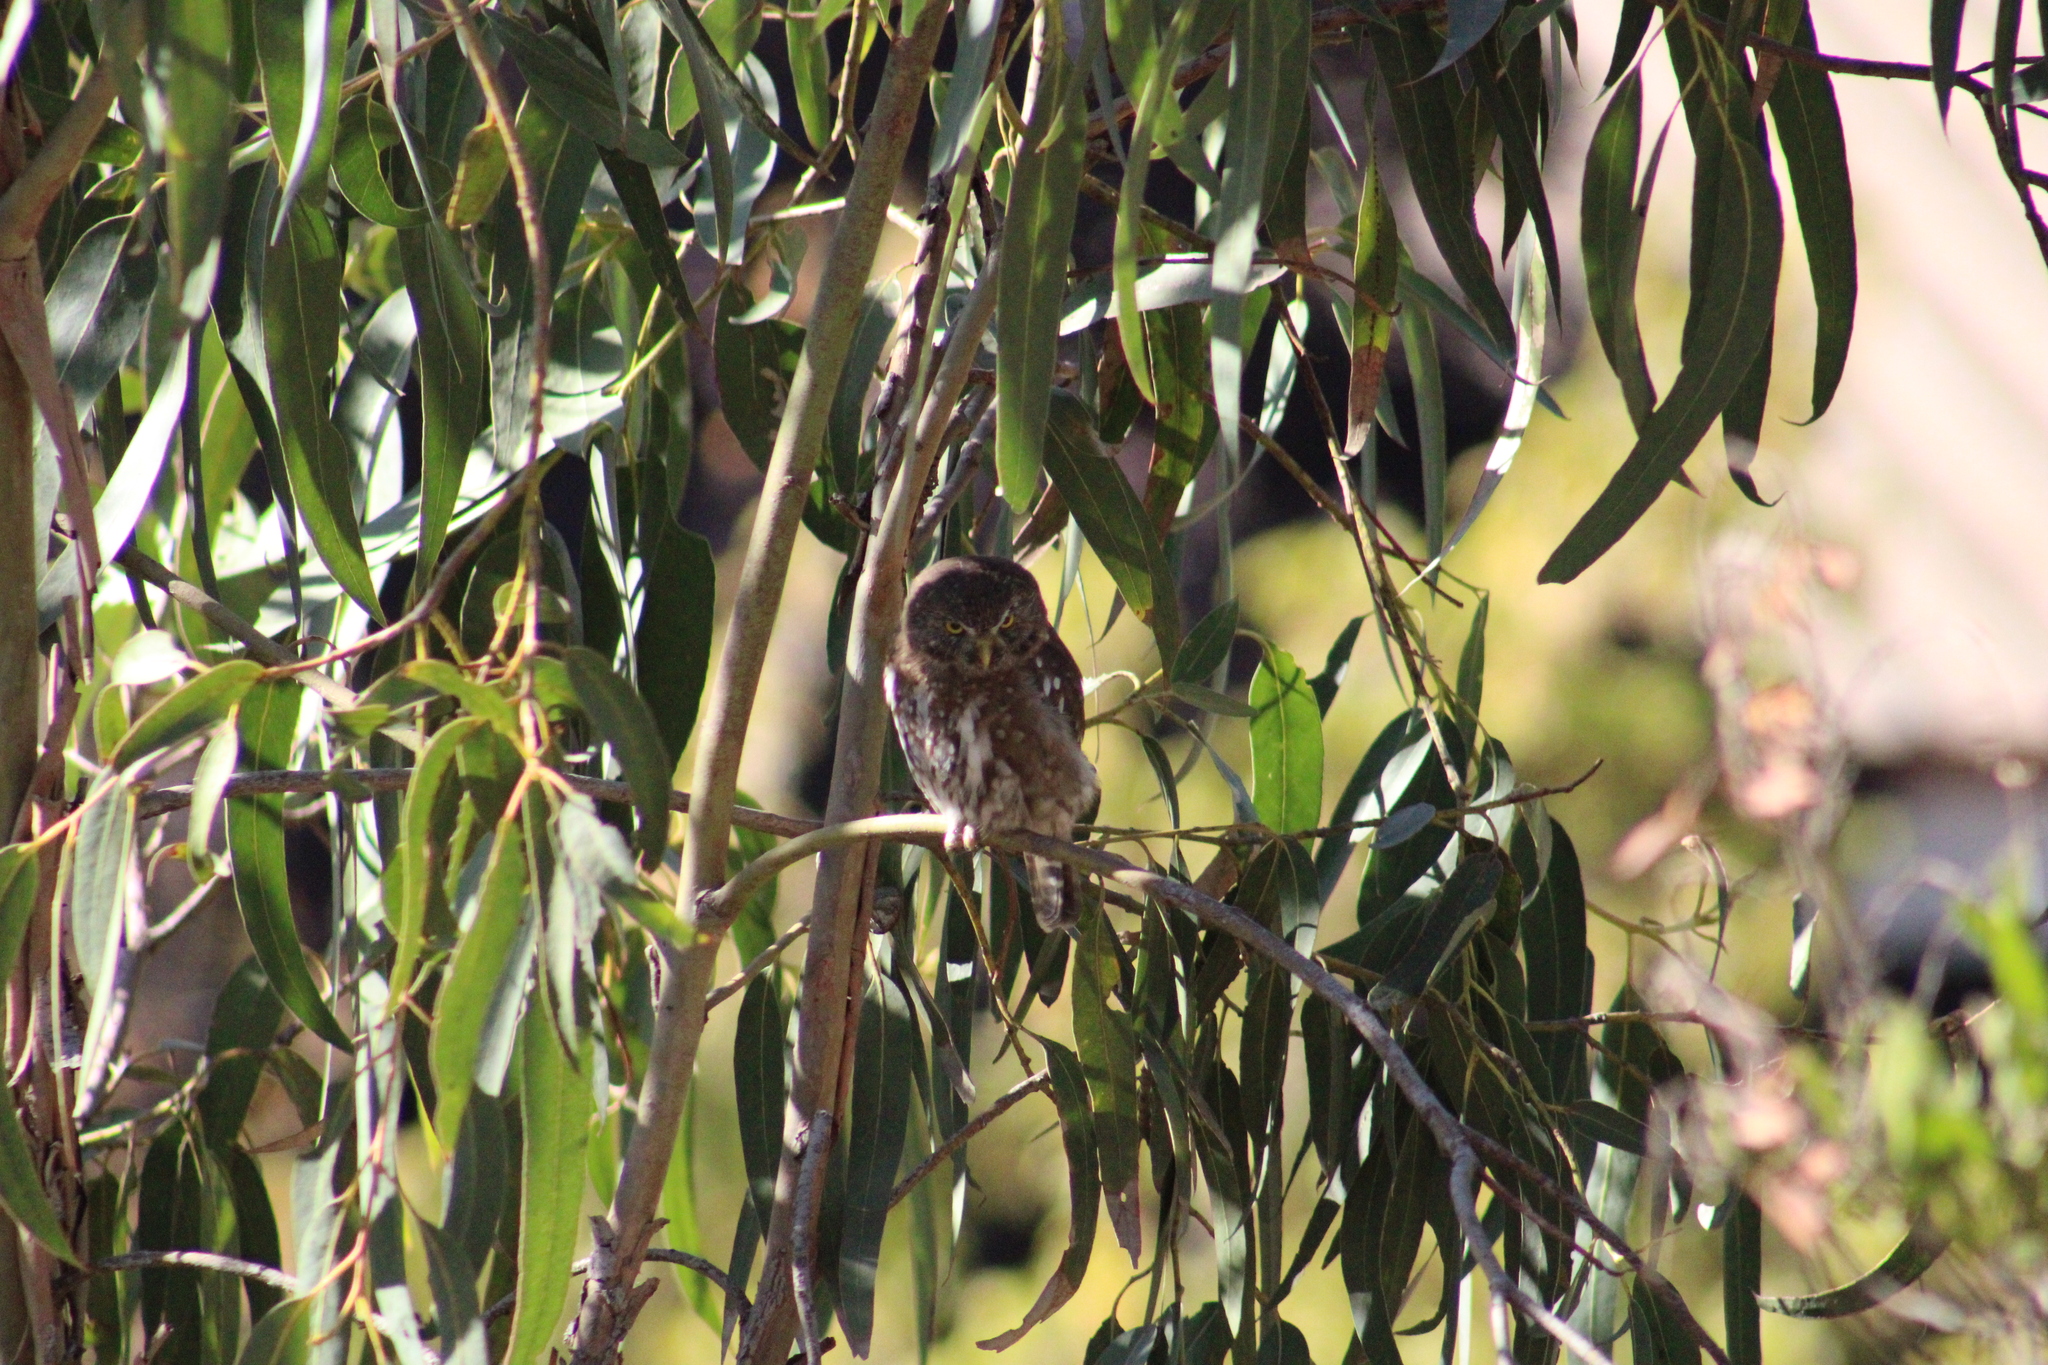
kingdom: Animalia
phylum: Chordata
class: Aves
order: Strigiformes
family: Strigidae
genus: Glaucidium
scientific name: Glaucidium nana
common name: Austral pygmy-owl
